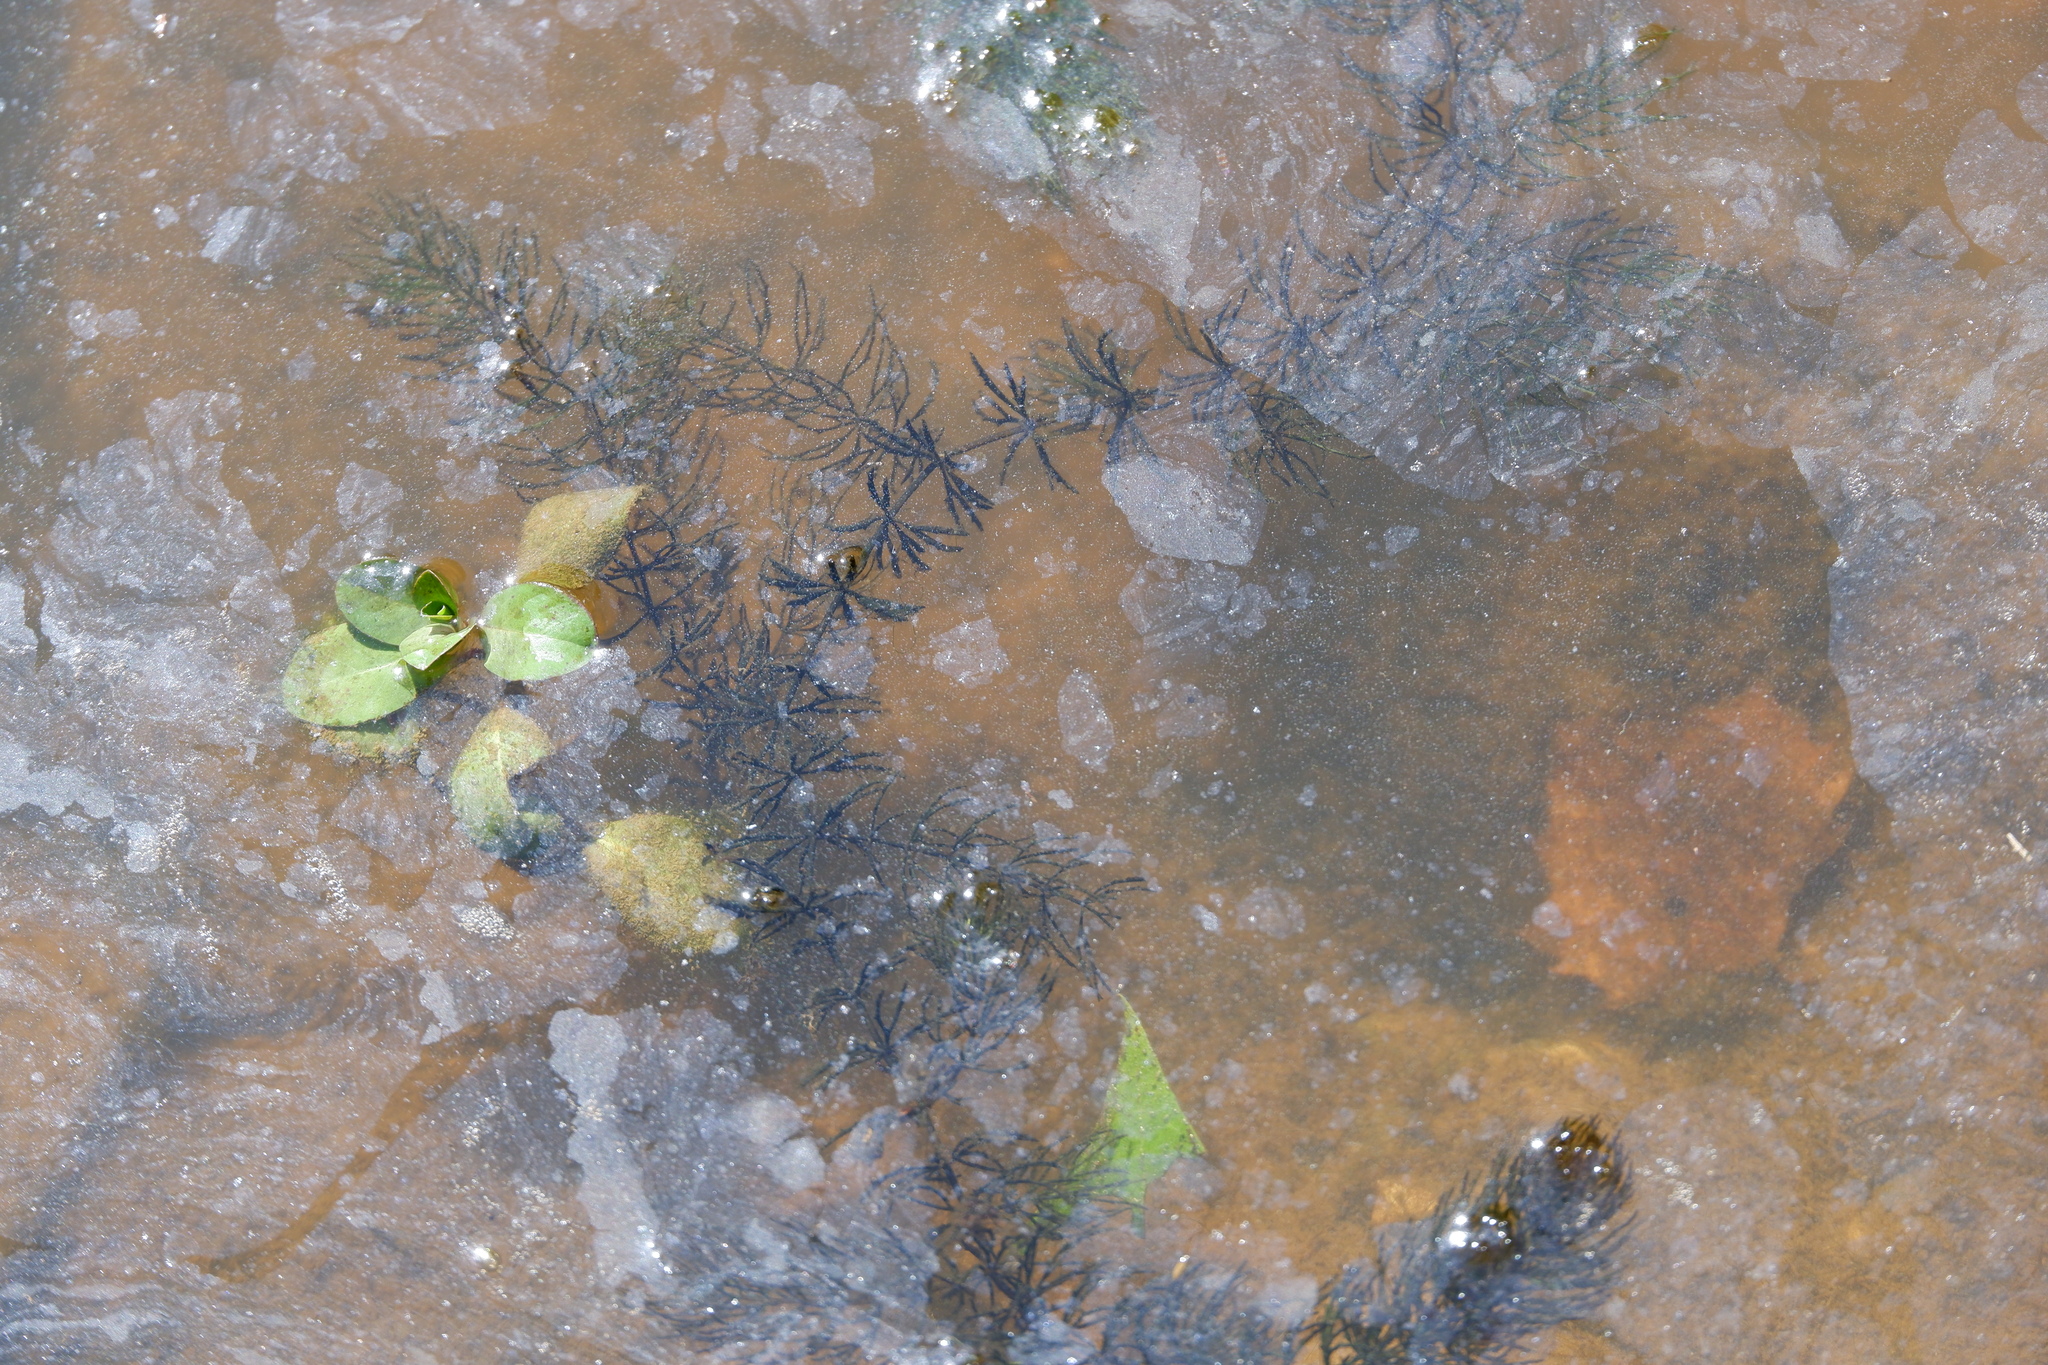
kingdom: Plantae
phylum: Tracheophyta
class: Magnoliopsida
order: Ceratophyllales
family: Ceratophyllaceae
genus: Ceratophyllum
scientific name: Ceratophyllum demersum
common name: Rigid hornwort
